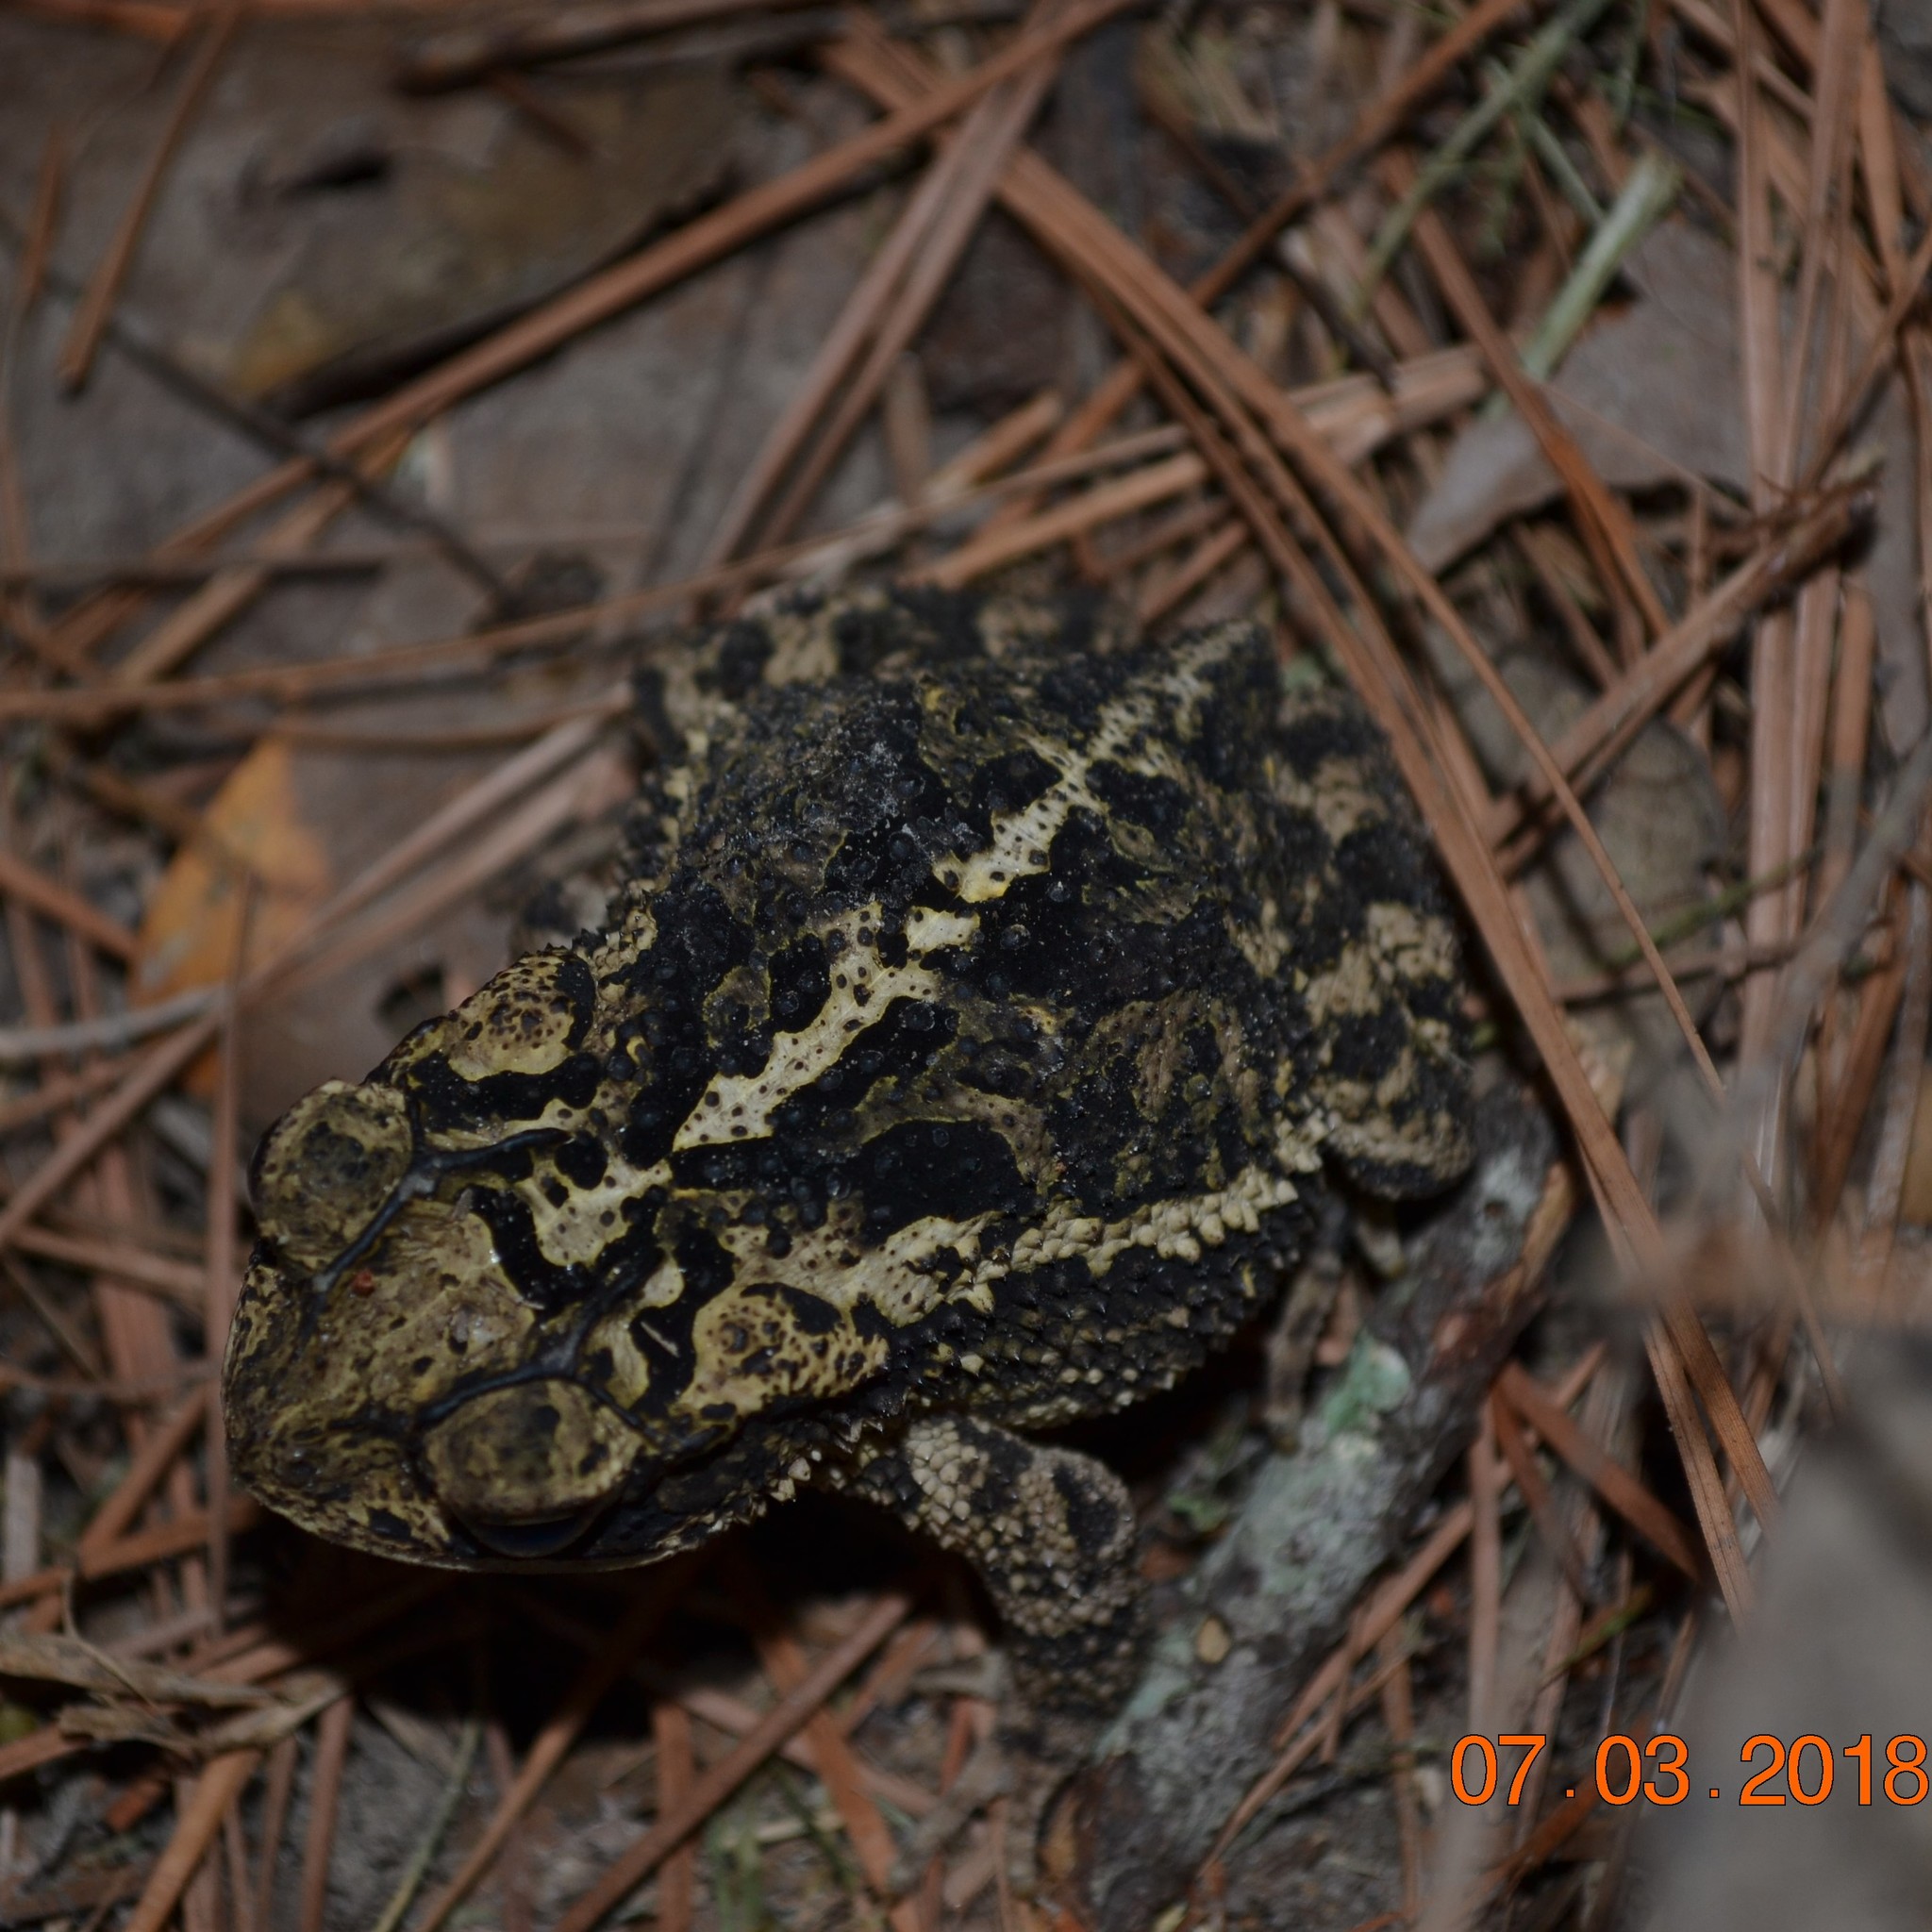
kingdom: Animalia
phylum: Chordata
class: Amphibia
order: Anura
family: Bufonidae
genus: Incilius
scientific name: Incilius nebulifer
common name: Gulf coast toad
